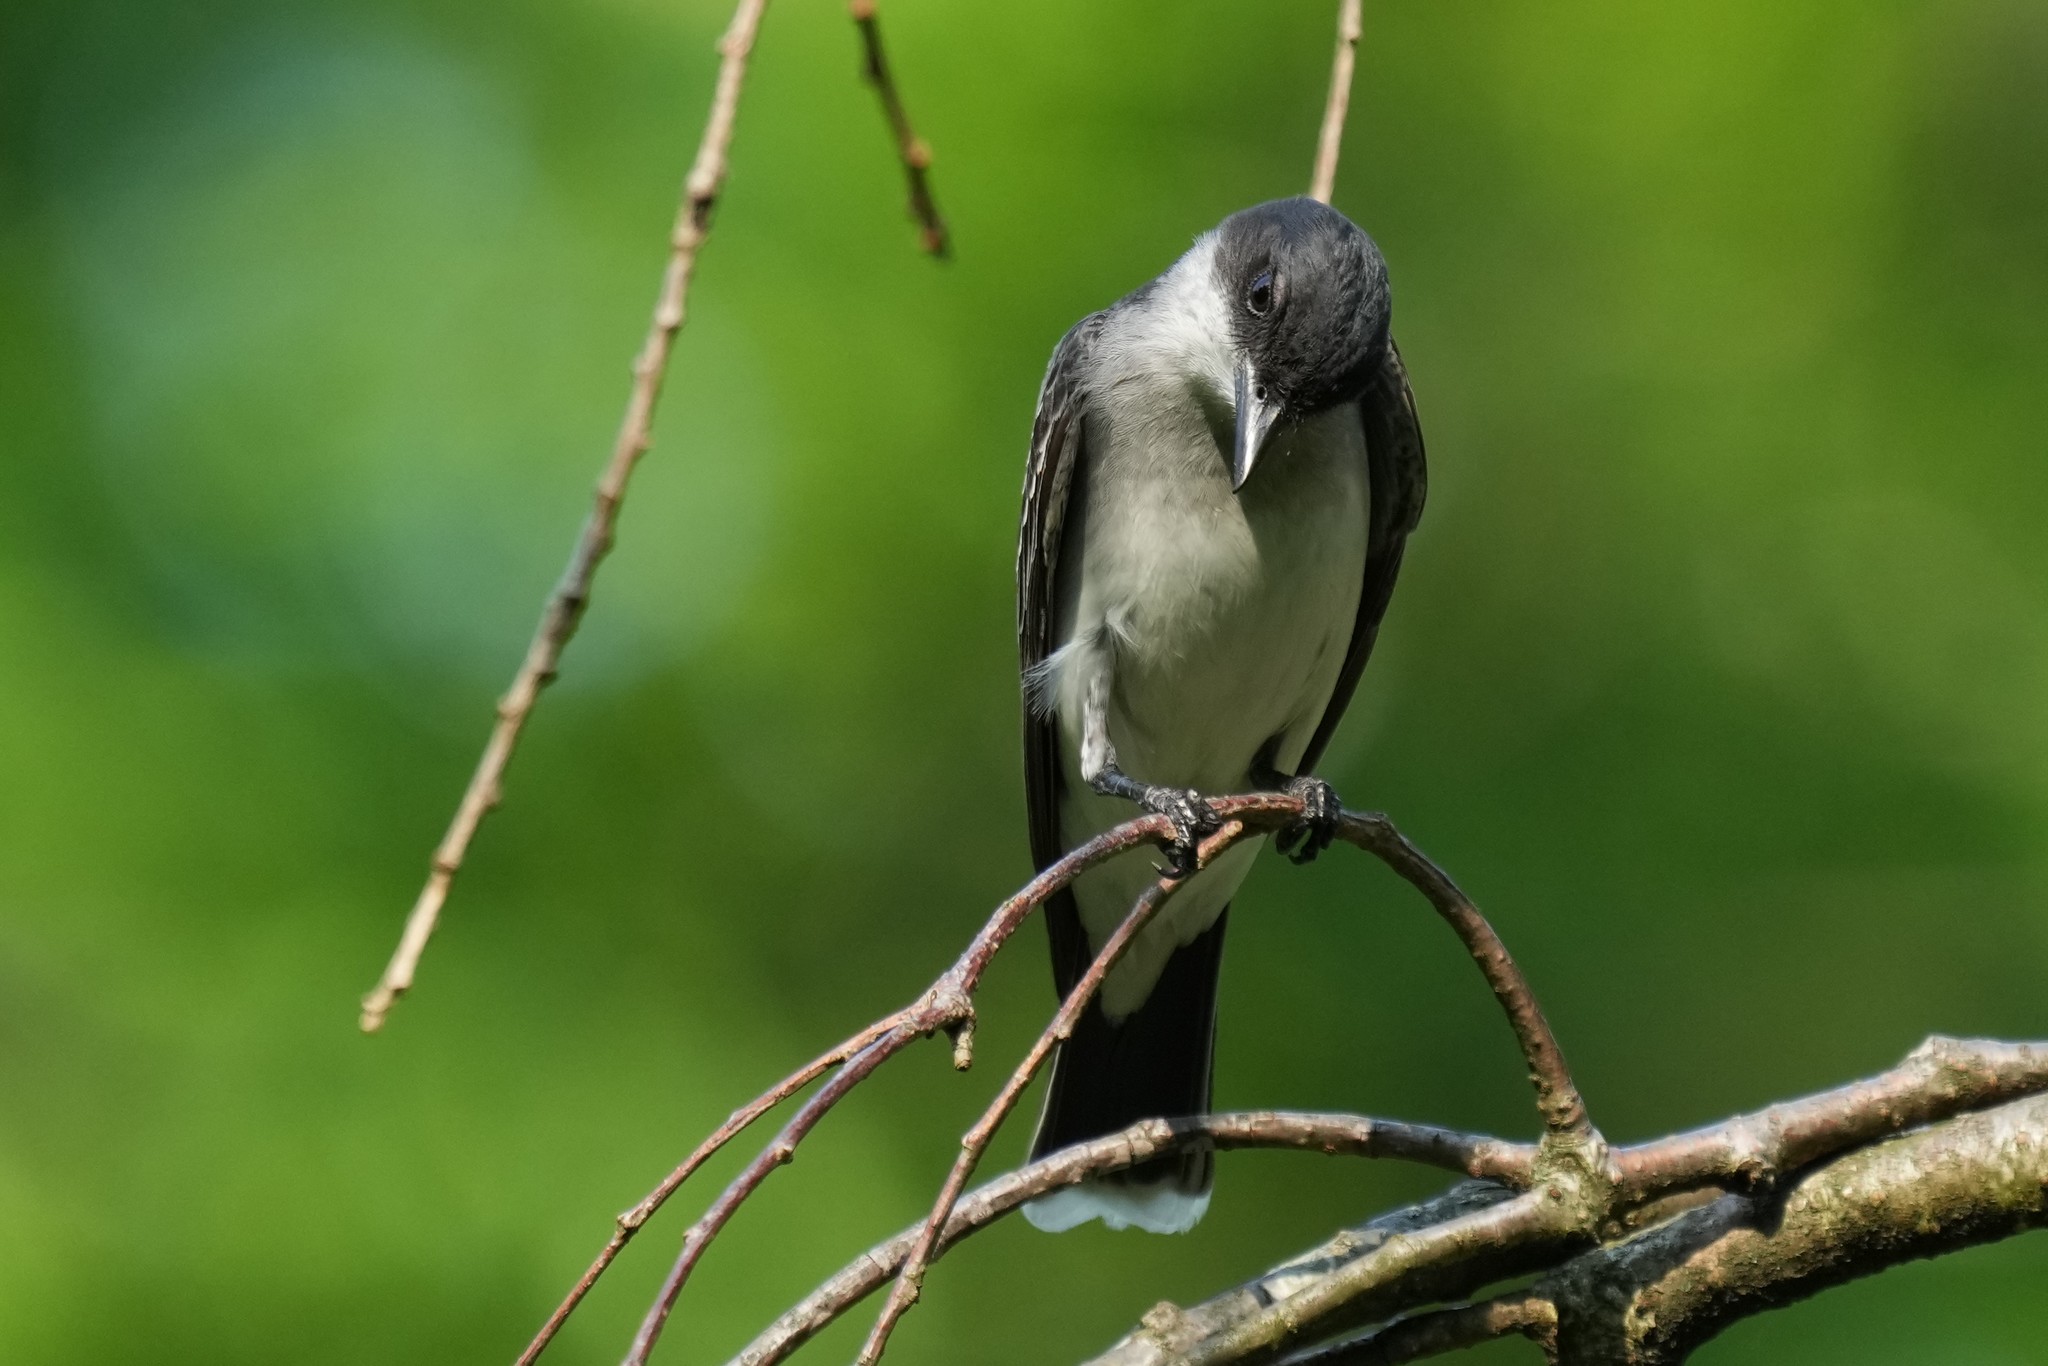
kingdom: Animalia
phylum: Chordata
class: Aves
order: Passeriformes
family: Tyrannidae
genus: Tyrannus
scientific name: Tyrannus tyrannus
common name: Eastern kingbird
